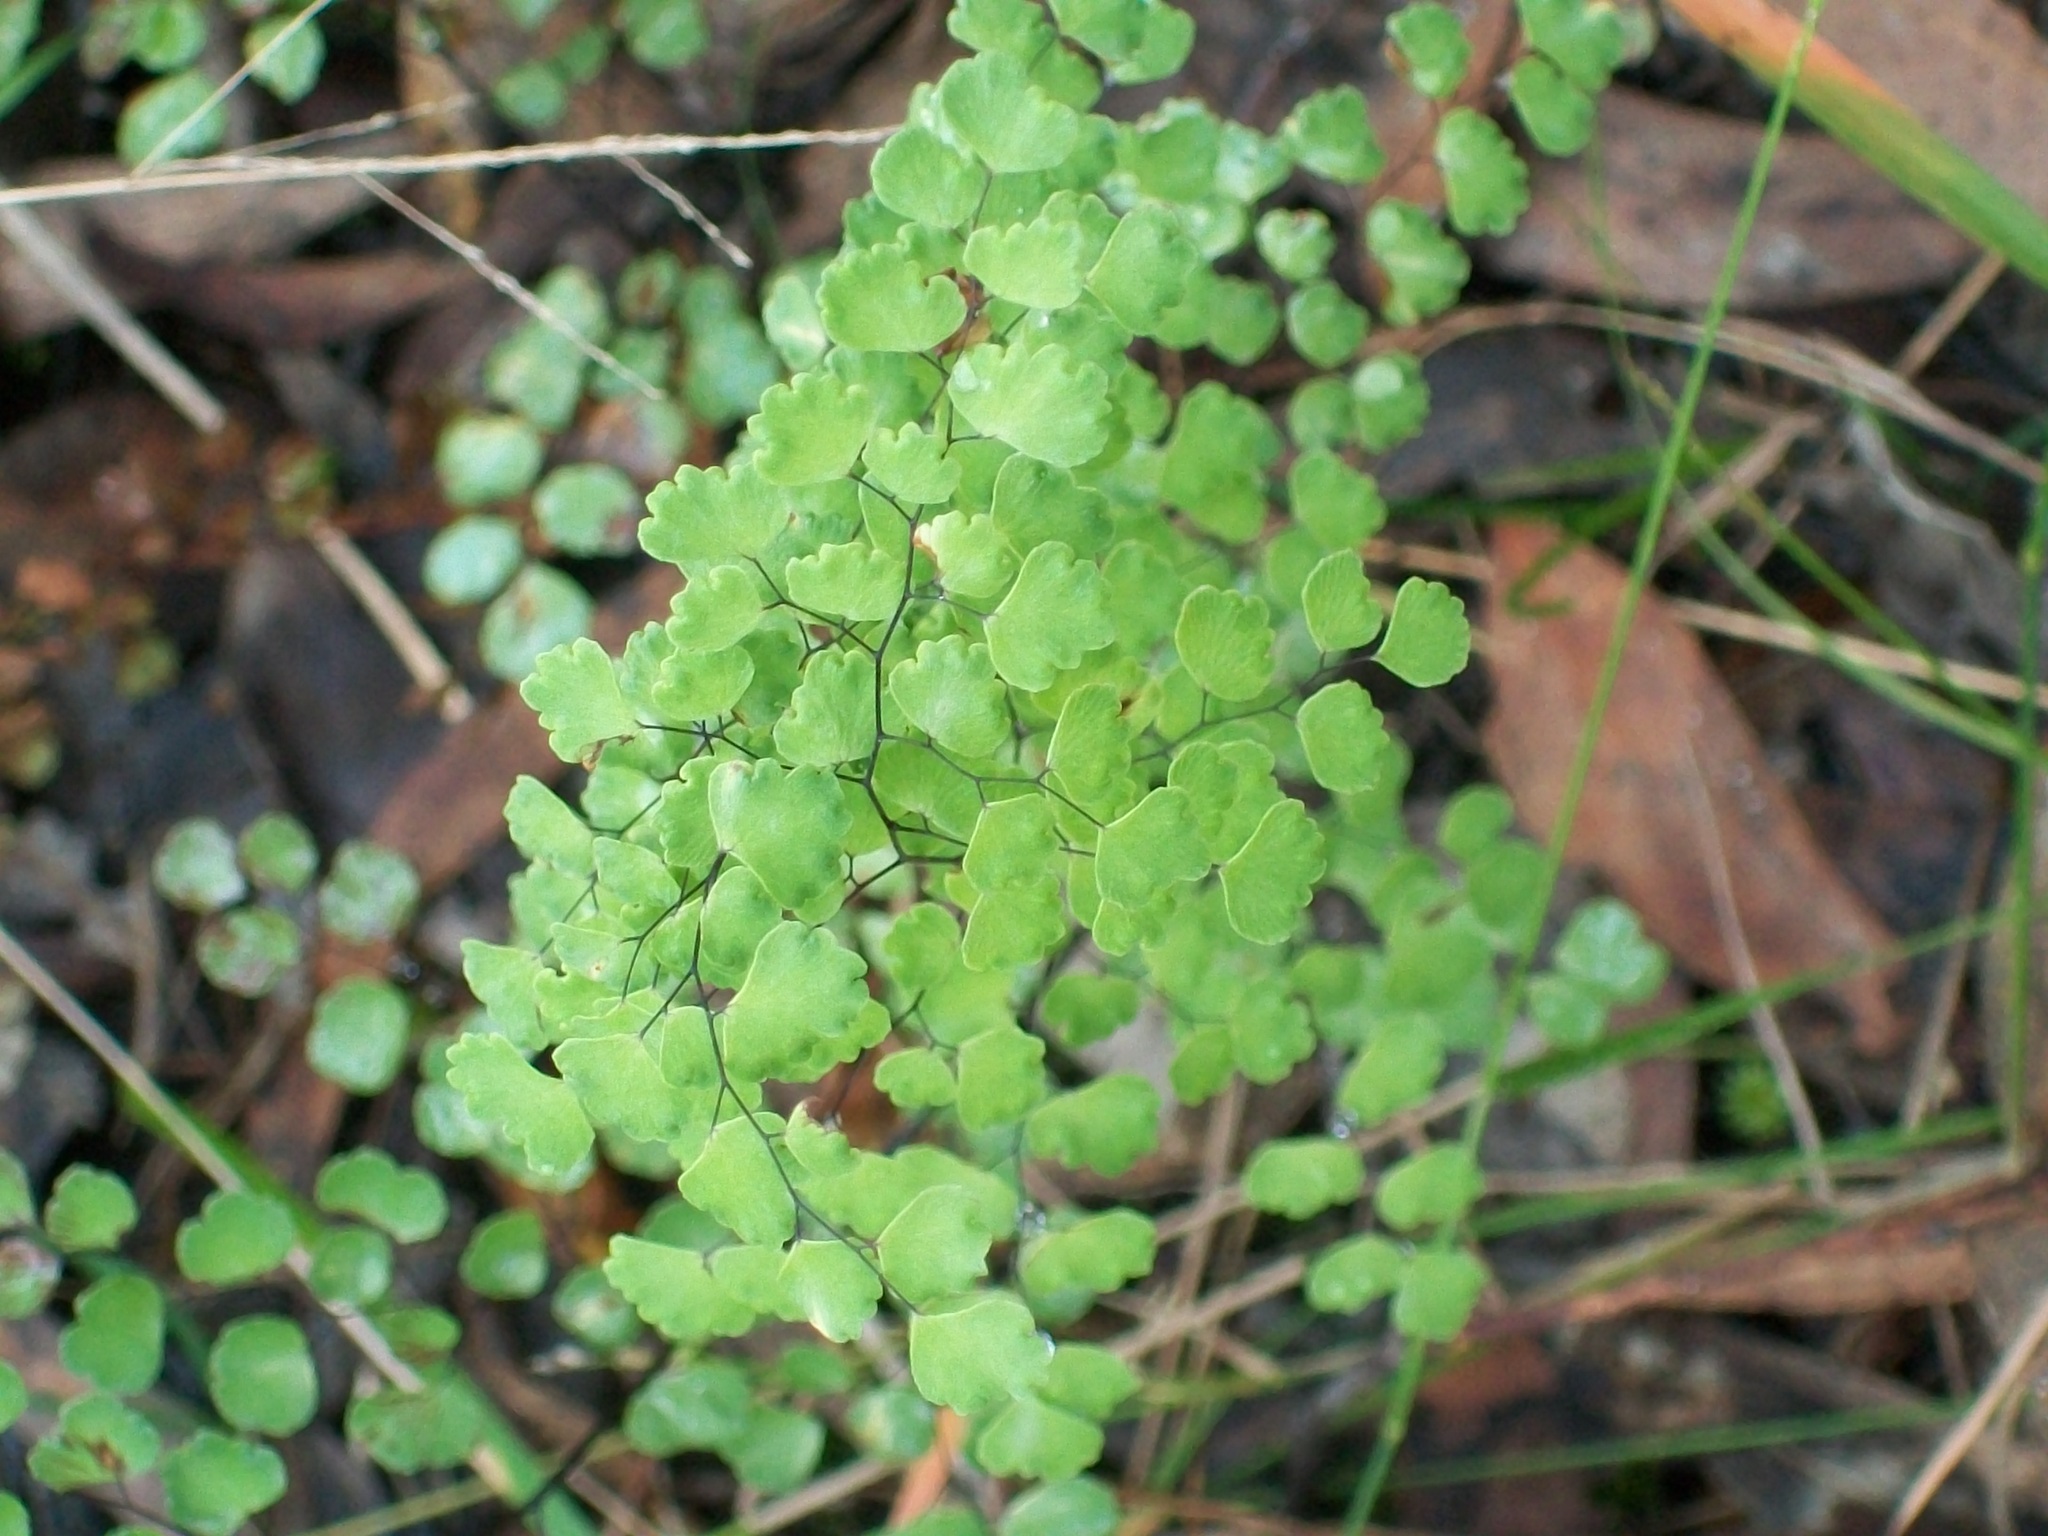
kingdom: Plantae
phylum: Tracheophyta
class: Polypodiopsida
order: Polypodiales
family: Pteridaceae
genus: Adiantum
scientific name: Adiantum aethiopicum
